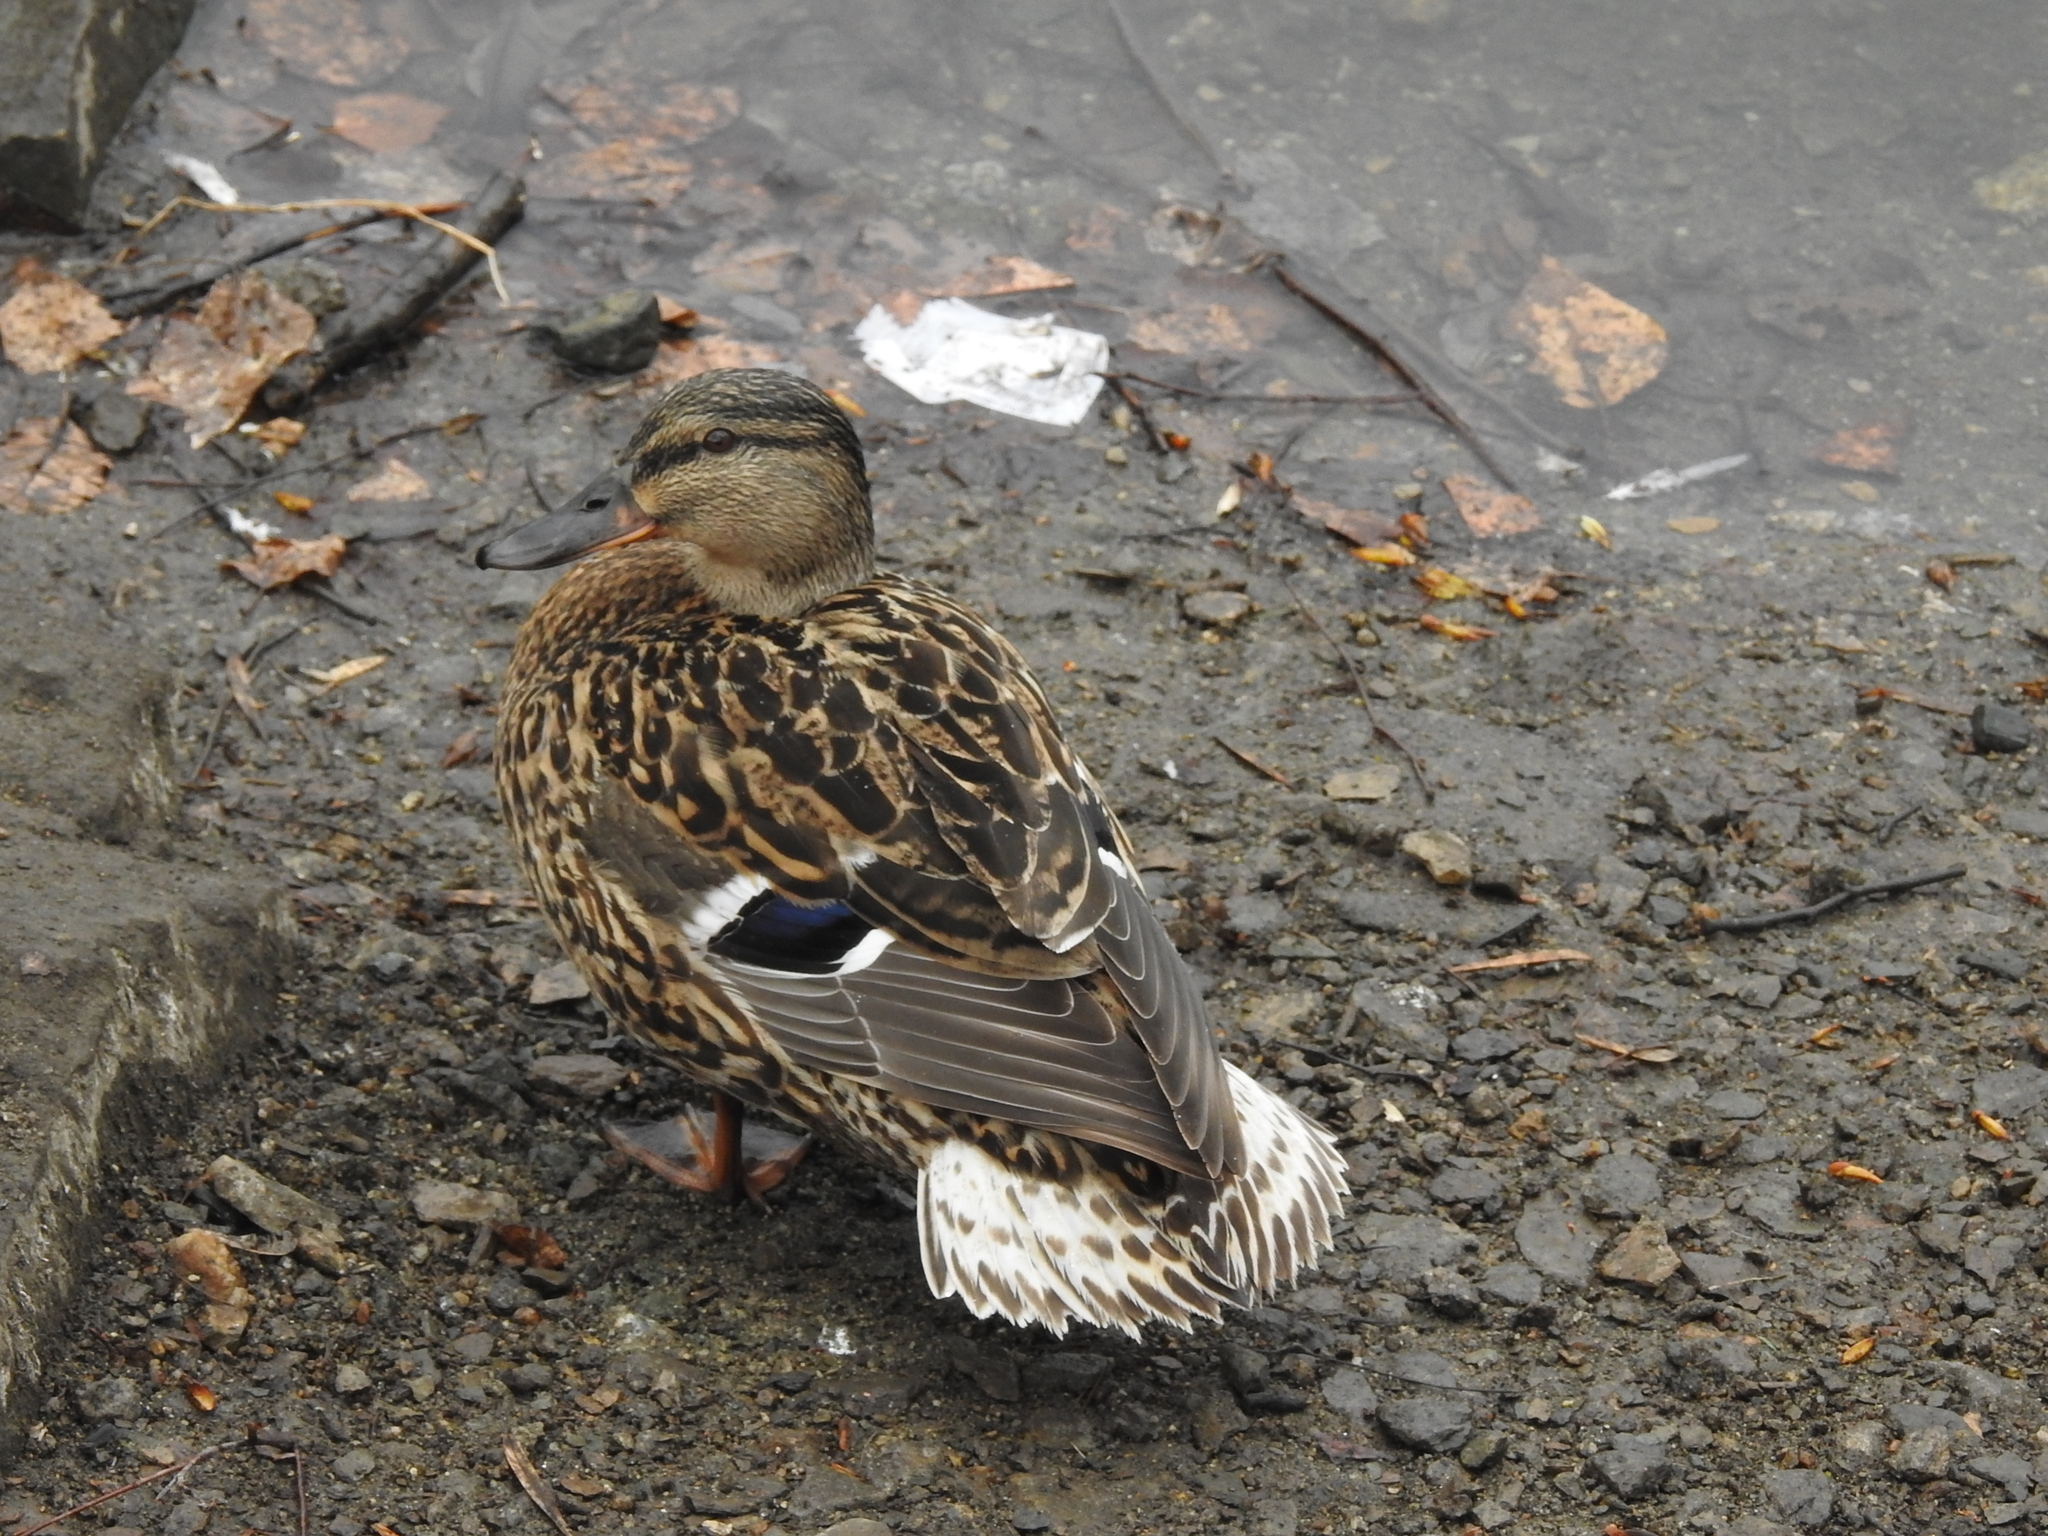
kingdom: Animalia
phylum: Chordata
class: Aves
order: Anseriformes
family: Anatidae
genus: Anas
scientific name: Anas platyrhynchos
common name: Mallard
